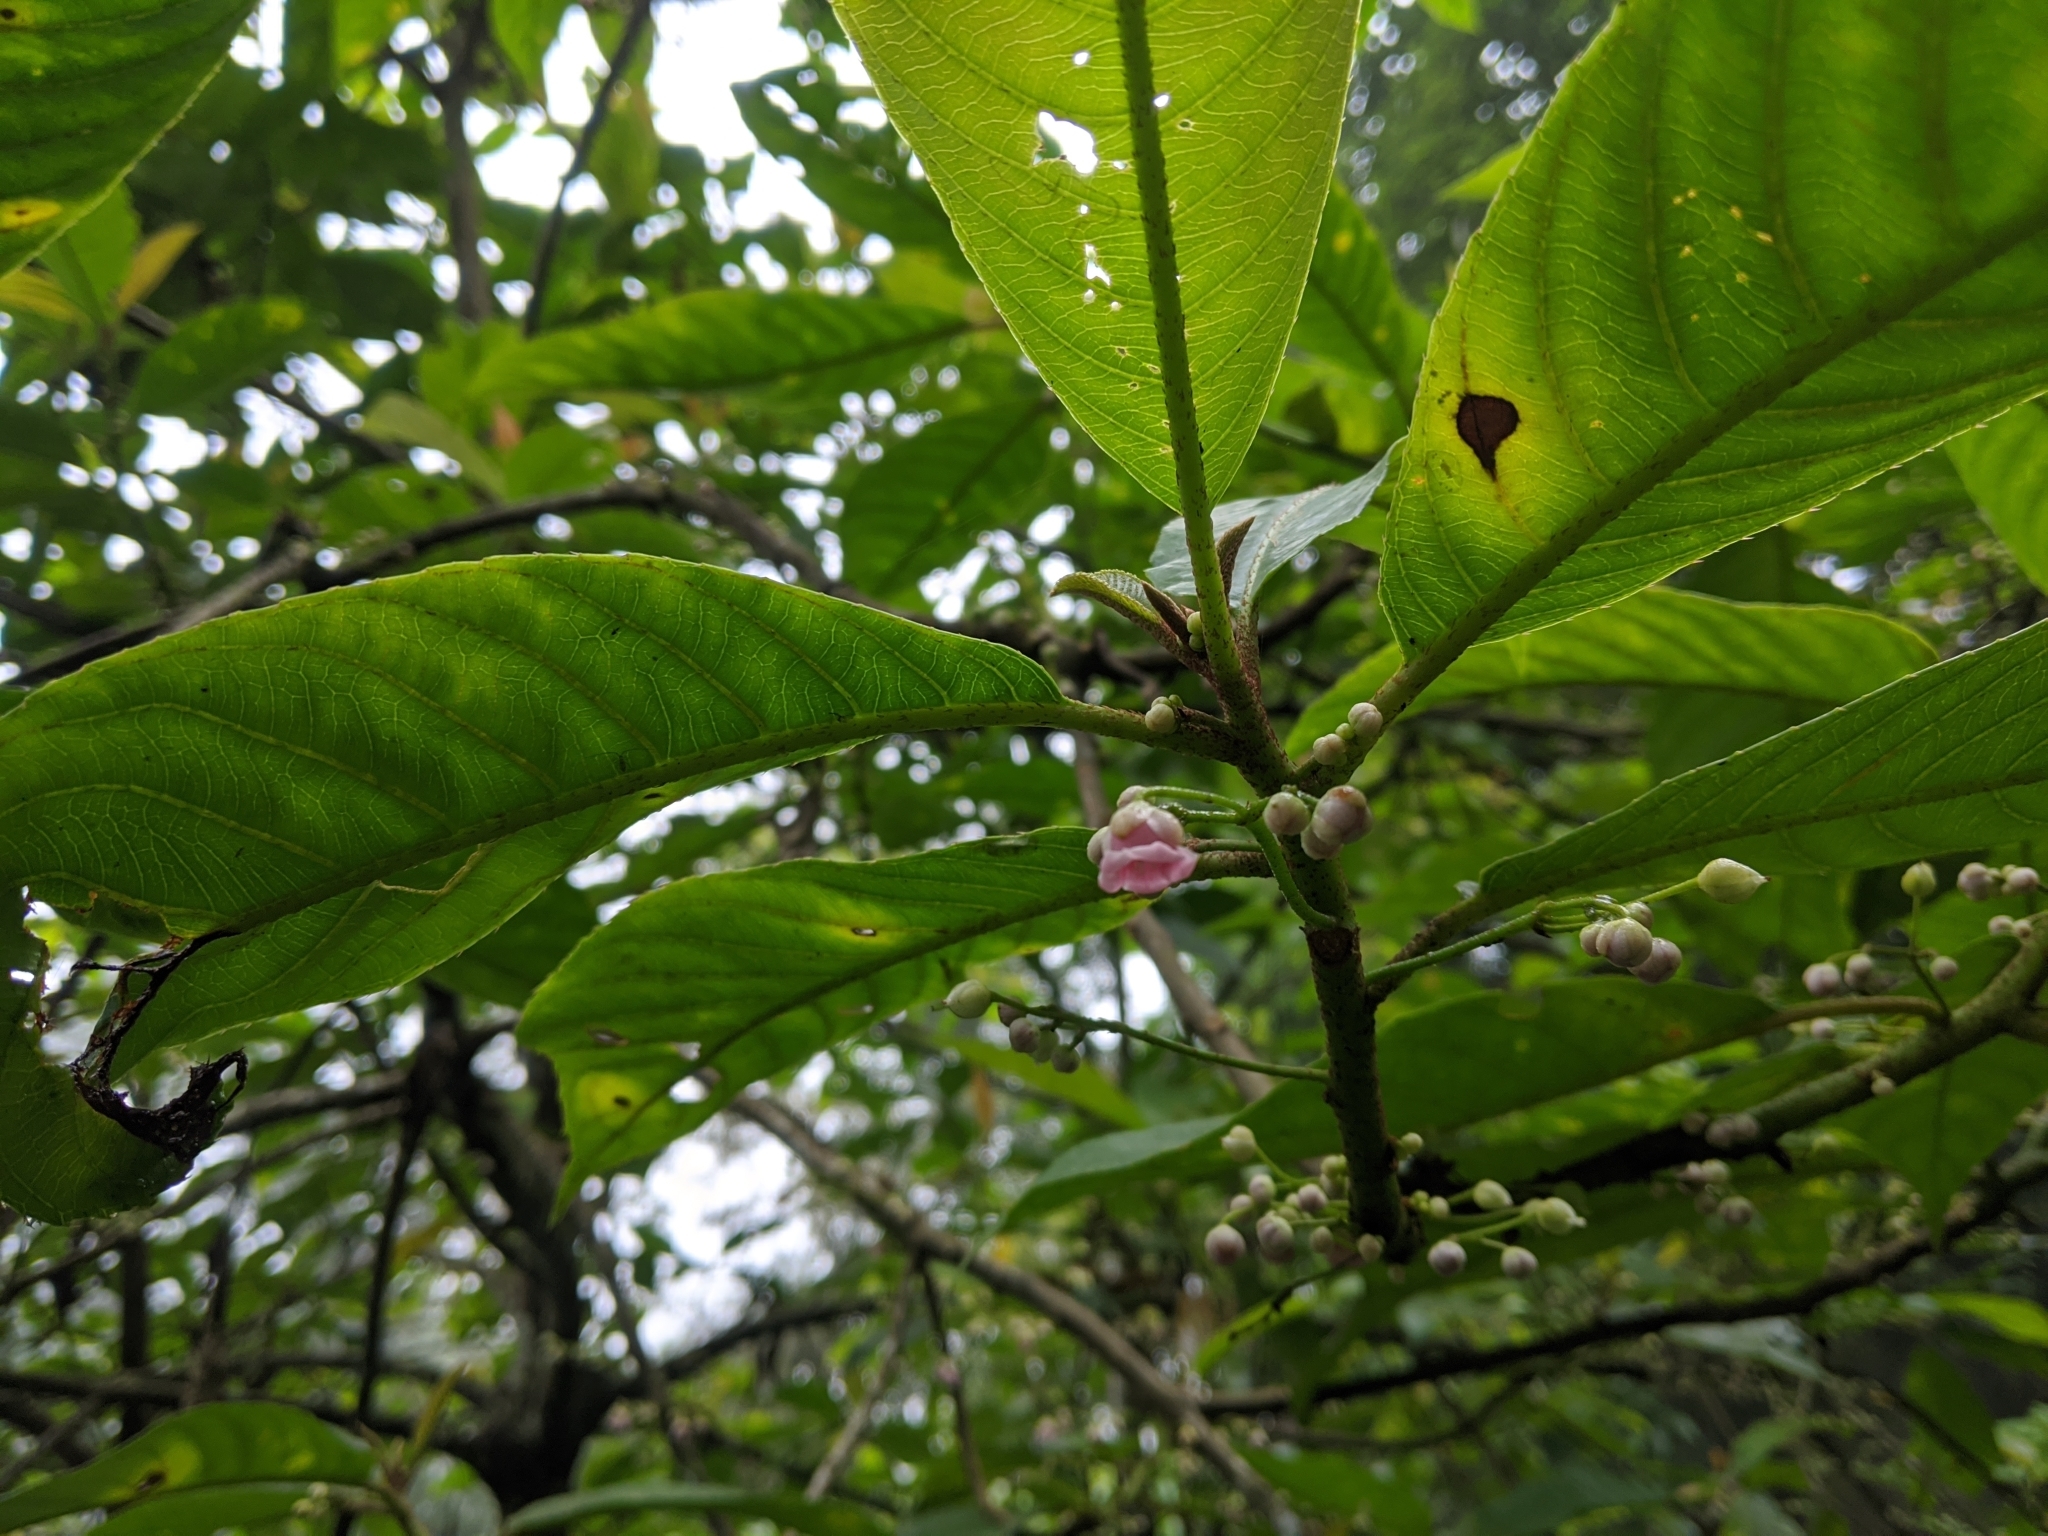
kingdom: Plantae
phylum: Tracheophyta
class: Magnoliopsida
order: Ericales
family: Actinidiaceae
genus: Saurauia
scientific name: Saurauia tristyla
